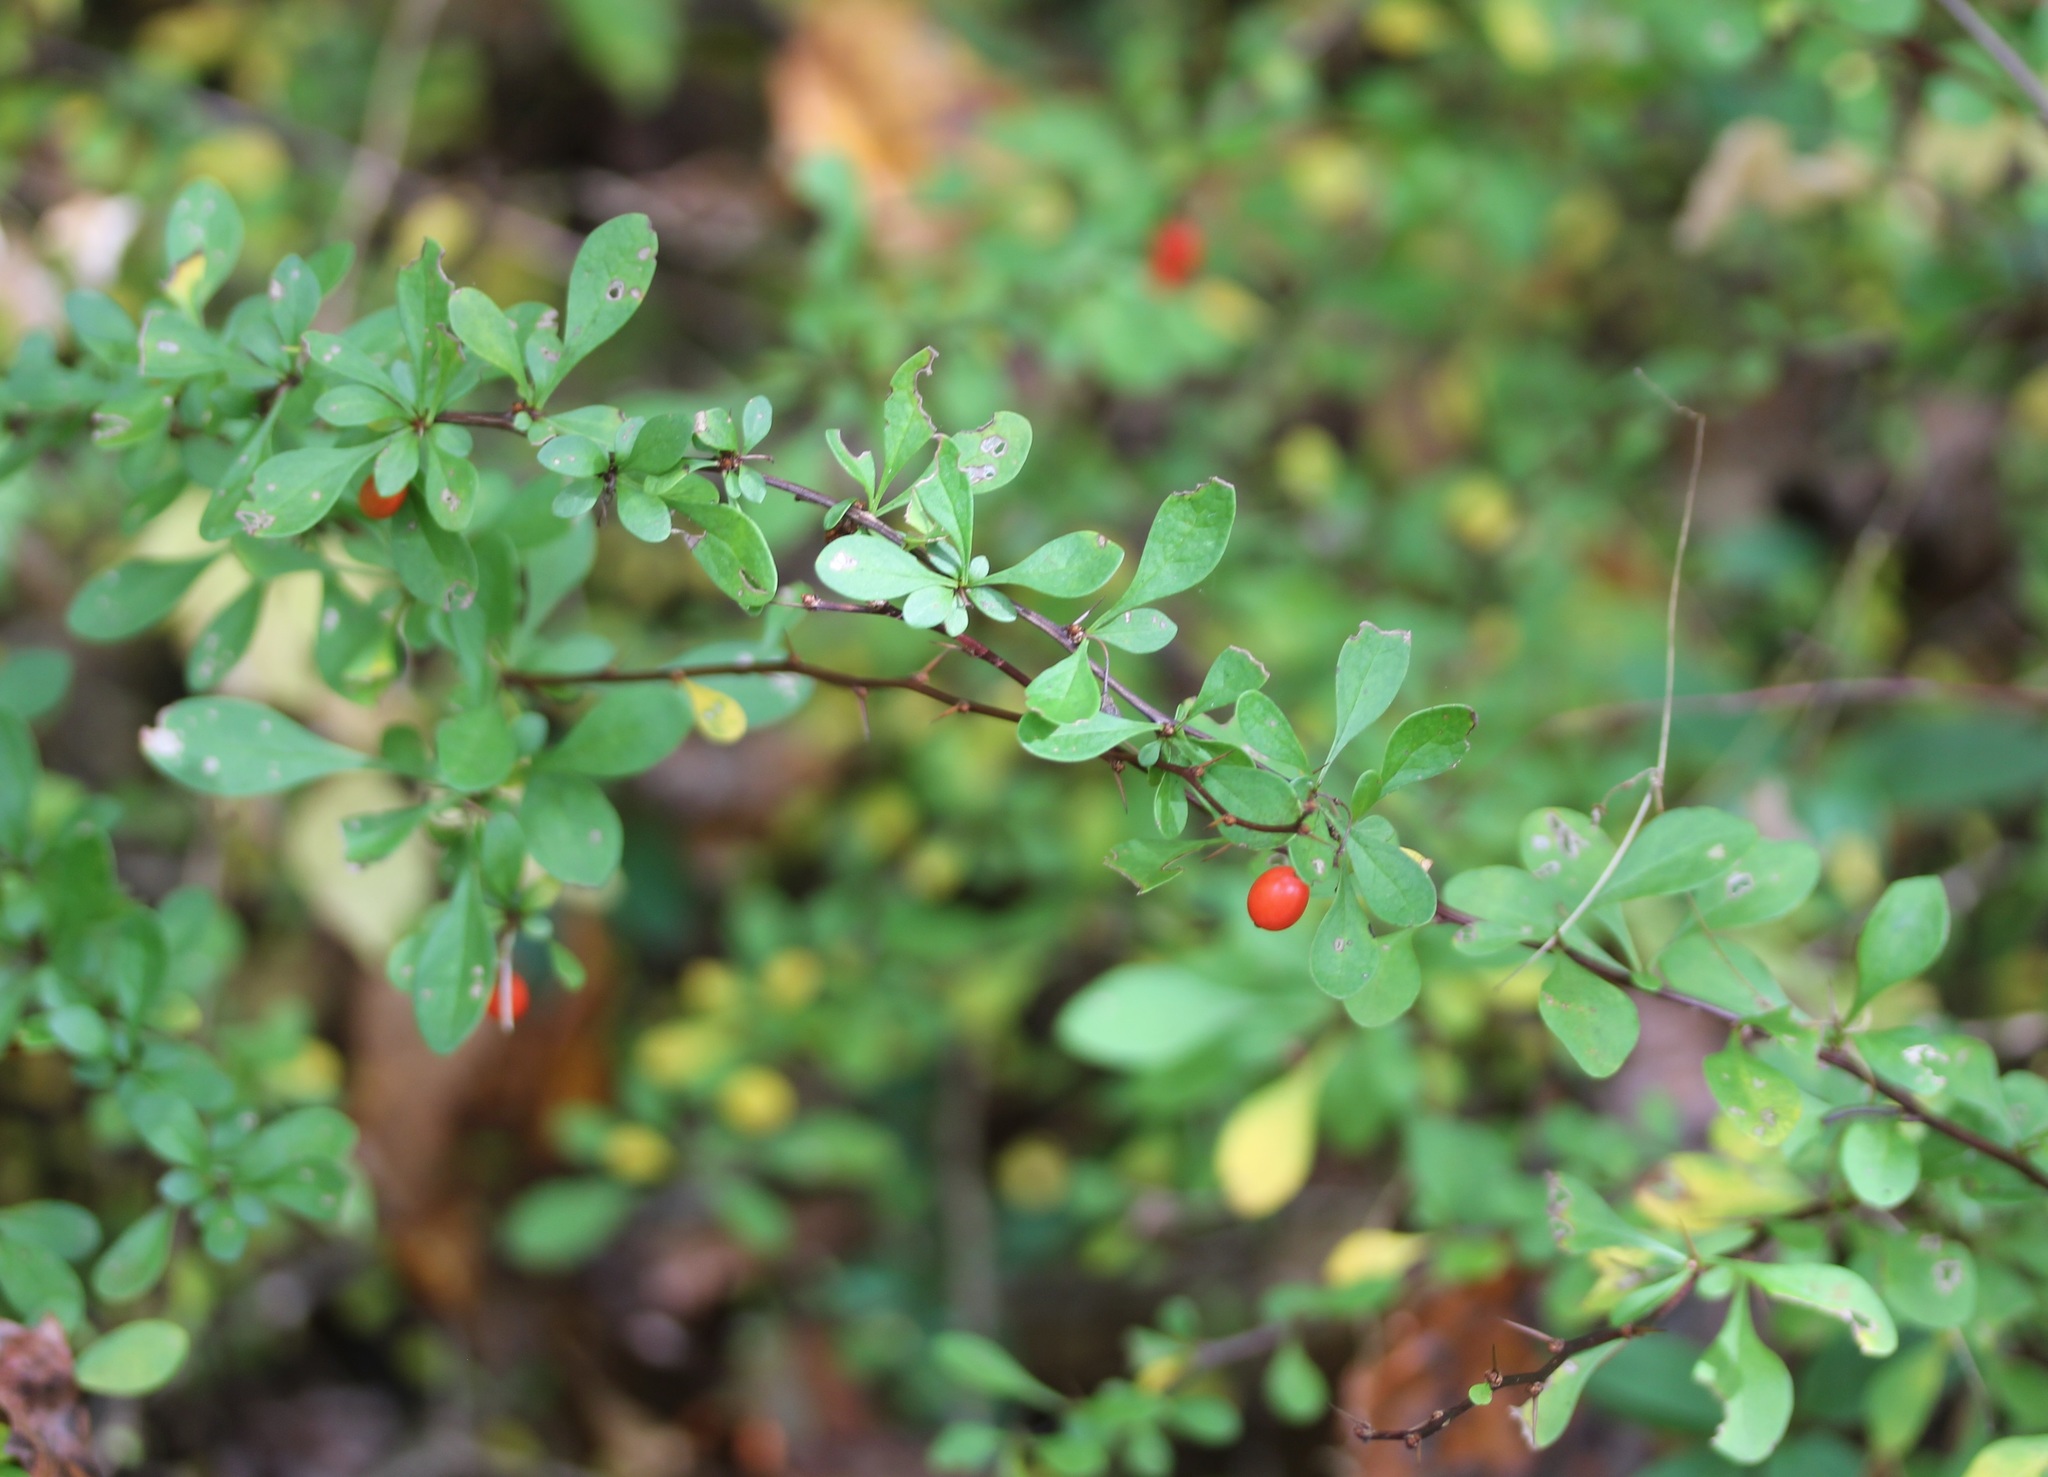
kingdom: Plantae
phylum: Tracheophyta
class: Magnoliopsida
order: Ranunculales
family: Berberidaceae
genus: Berberis
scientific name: Berberis thunbergii
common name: Japanese barberry
